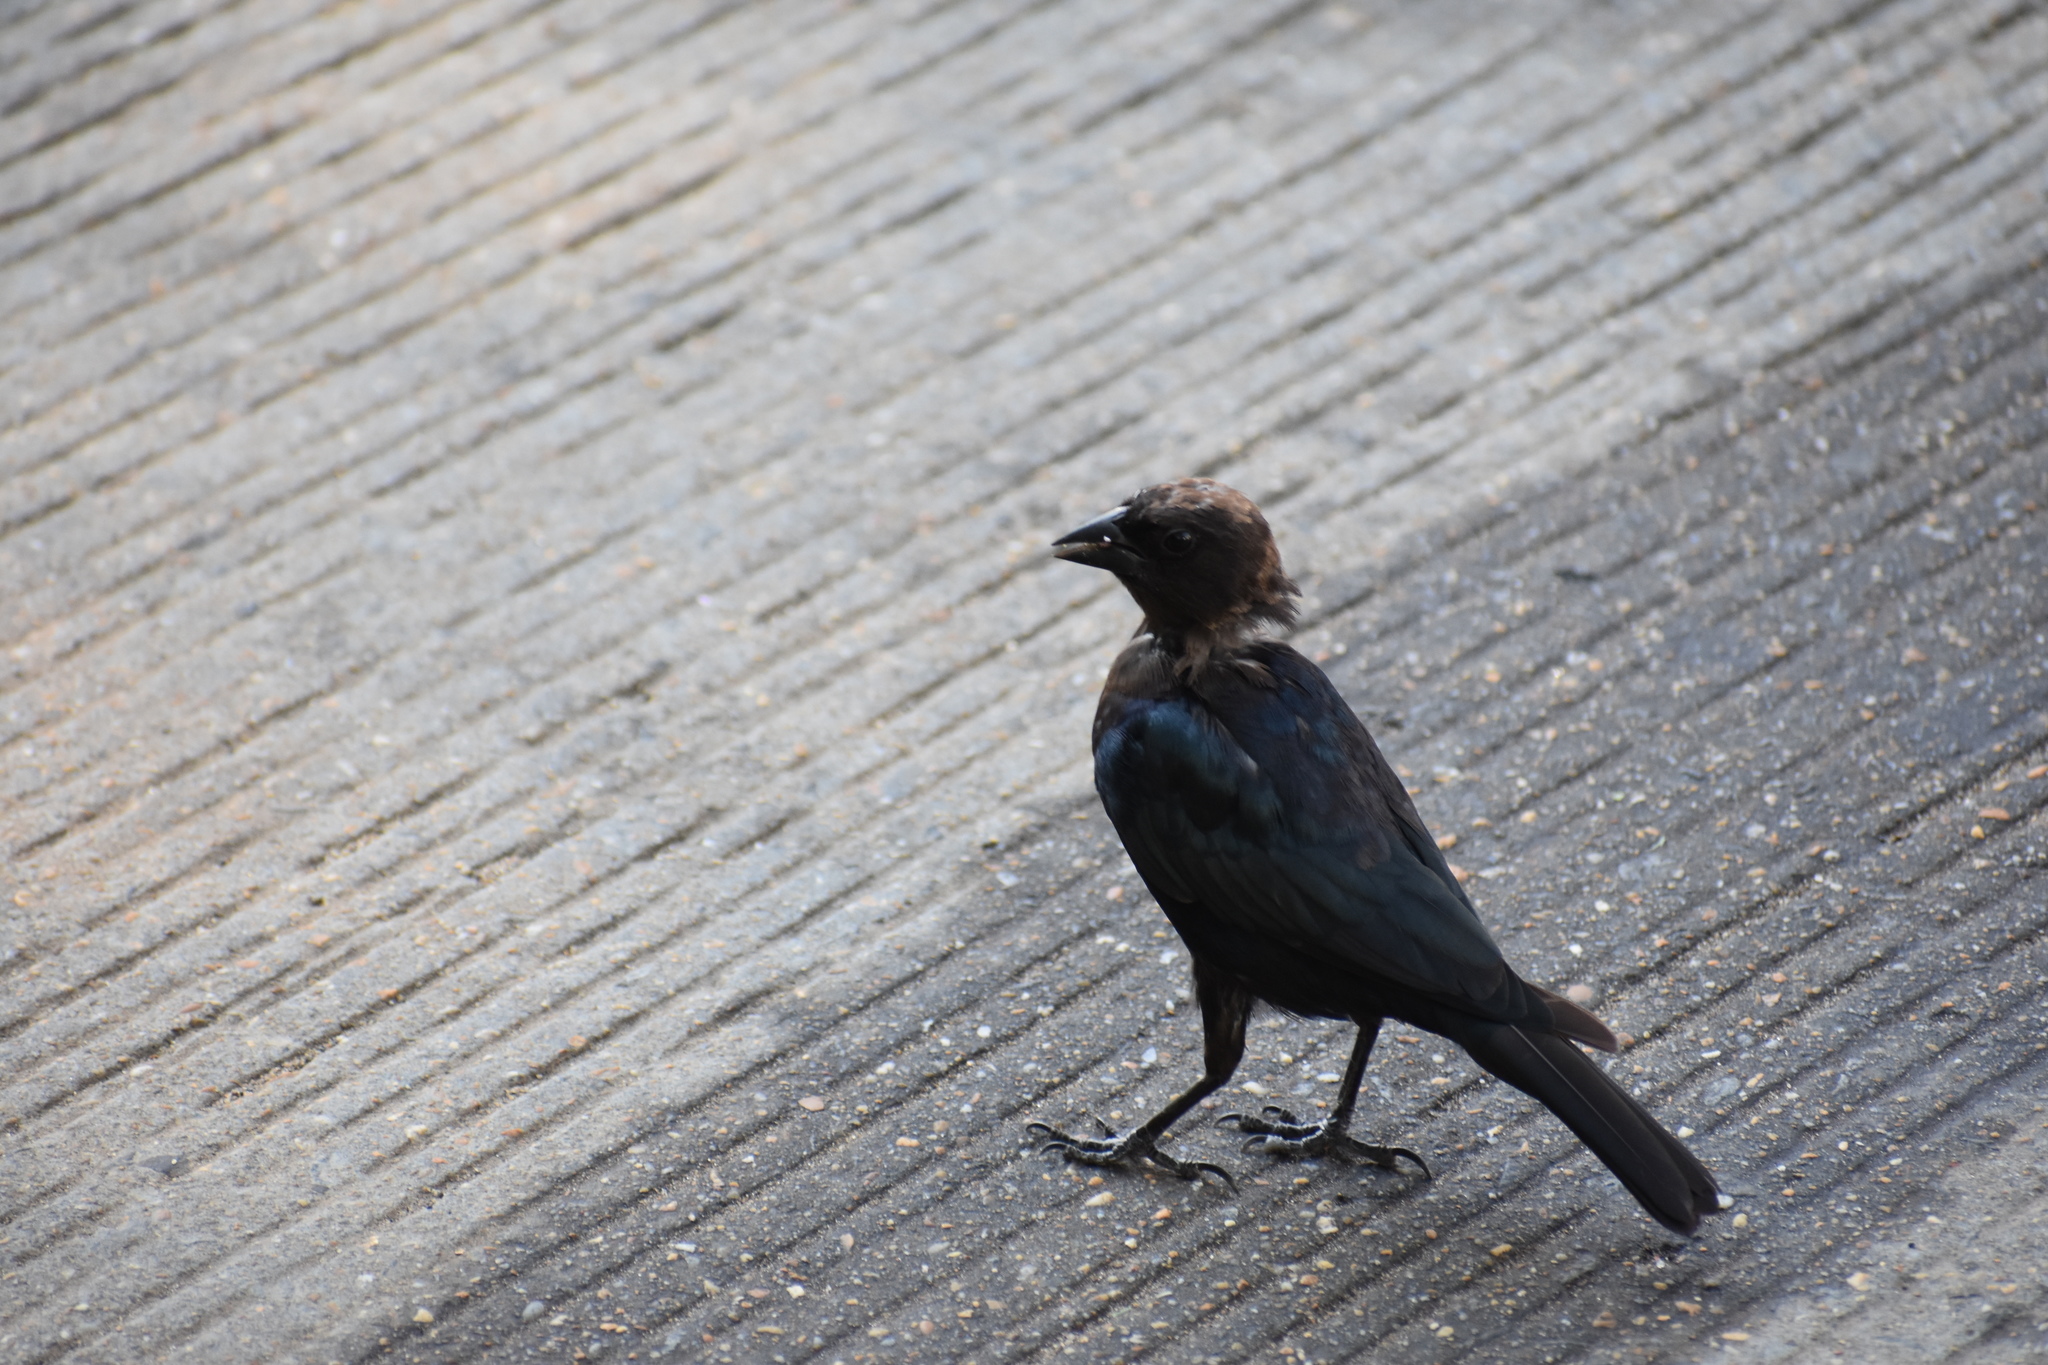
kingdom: Animalia
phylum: Chordata
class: Aves
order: Passeriformes
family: Icteridae
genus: Molothrus
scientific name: Molothrus ater
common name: Brown-headed cowbird
